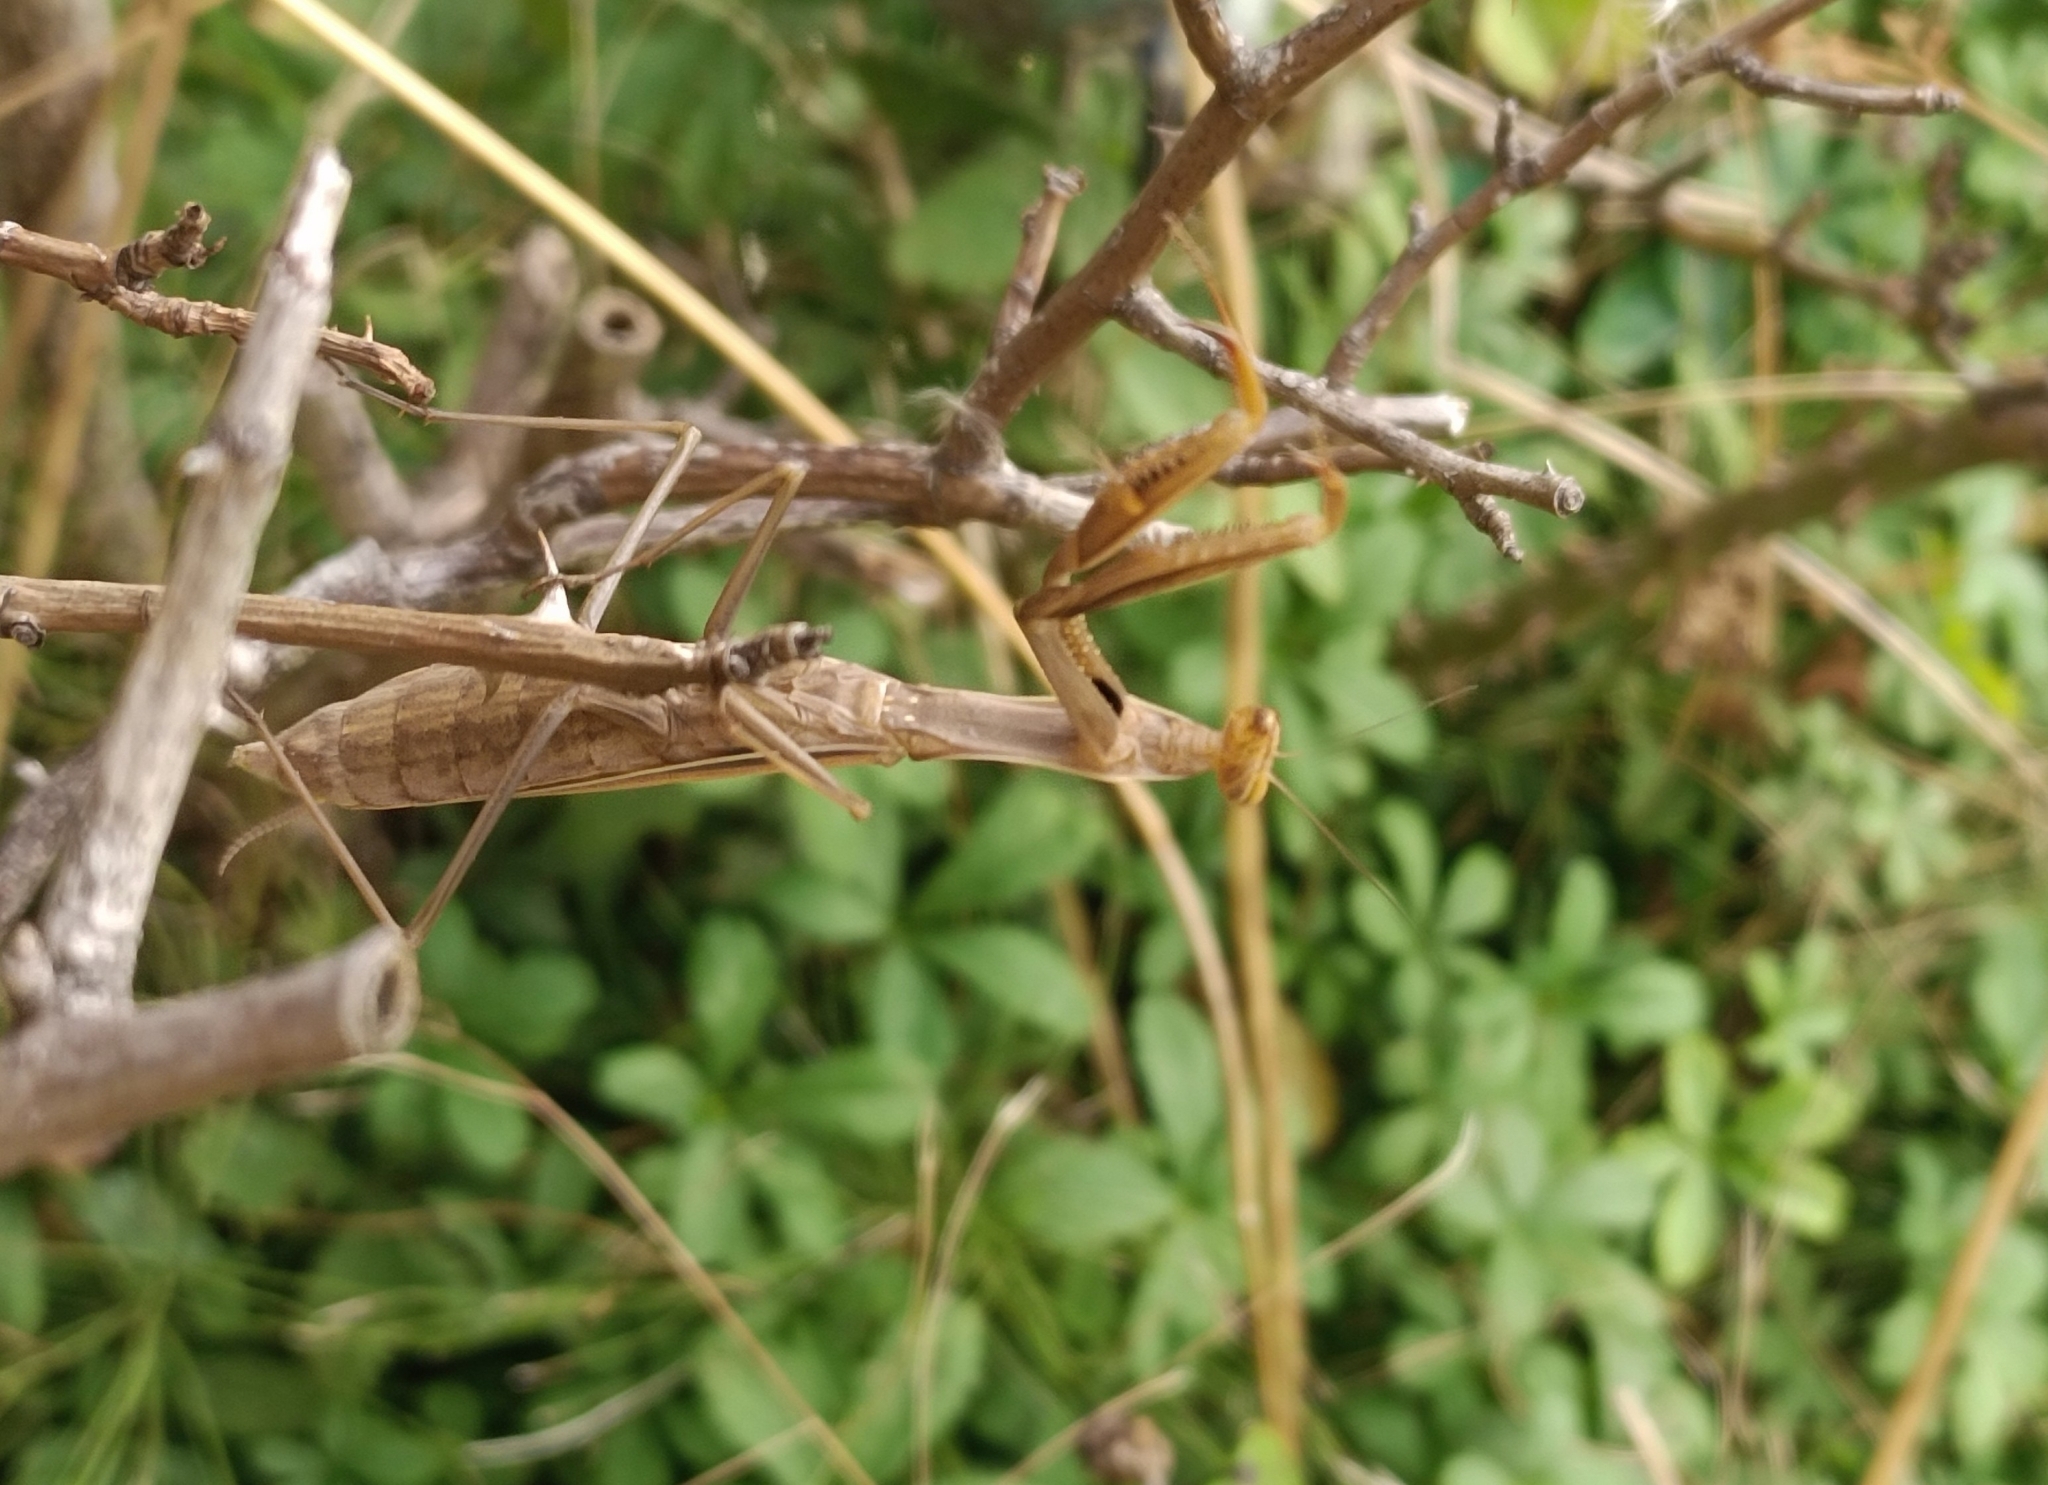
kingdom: Animalia
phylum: Arthropoda
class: Insecta
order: Mantodea
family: Mantidae
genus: Mantis
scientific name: Mantis religiosa
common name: Praying mantis
